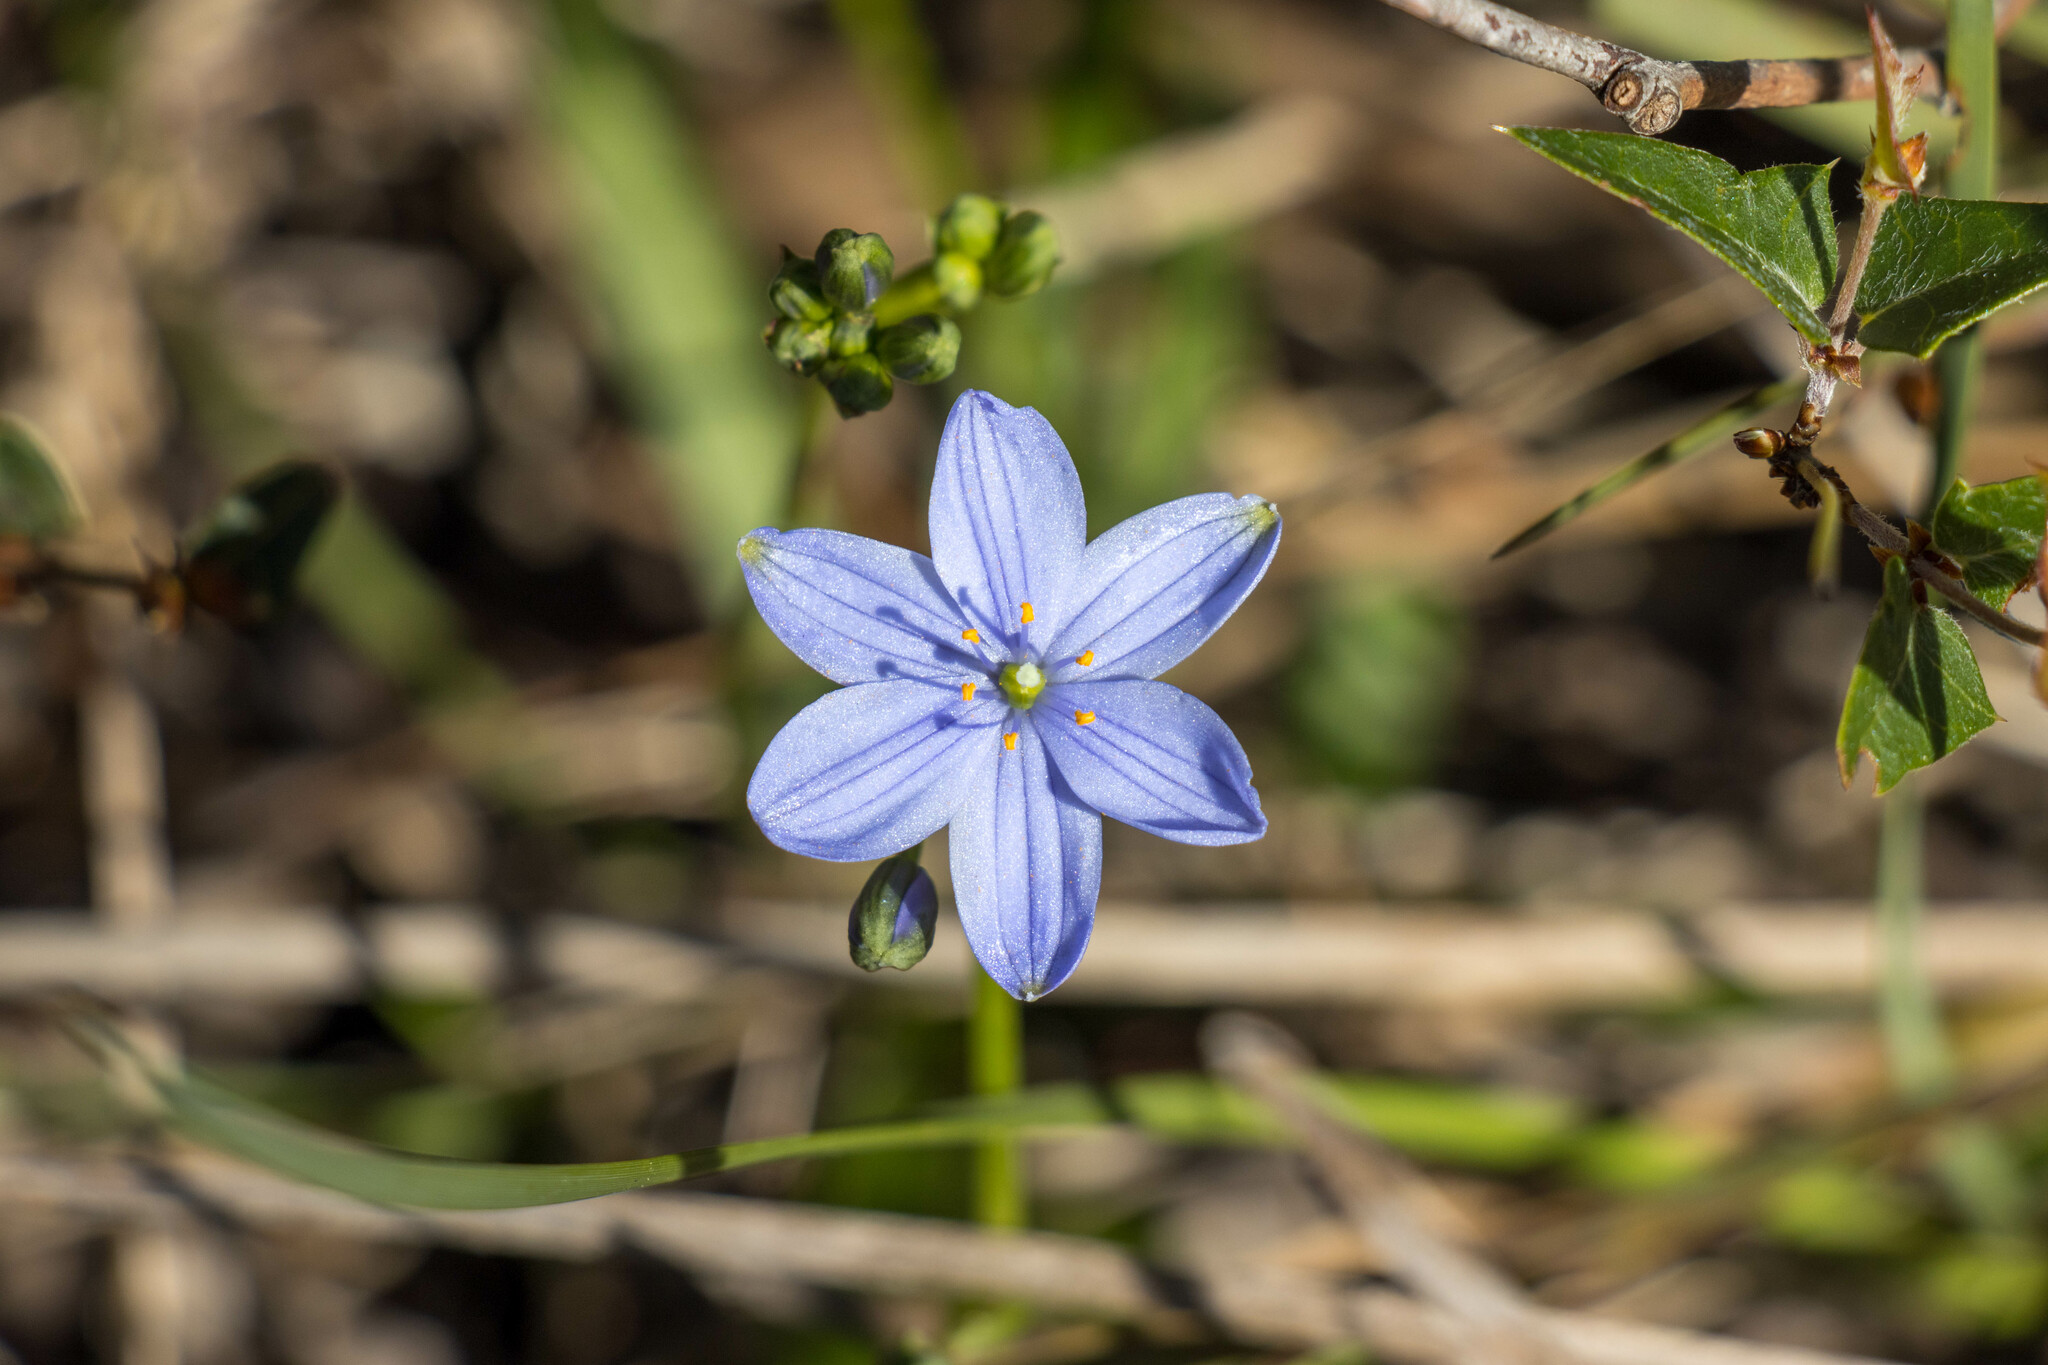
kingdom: Plantae
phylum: Tracheophyta
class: Liliopsida
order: Asparagales
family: Asphodelaceae
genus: Chamaescilla
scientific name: Chamaescilla corymbosa
